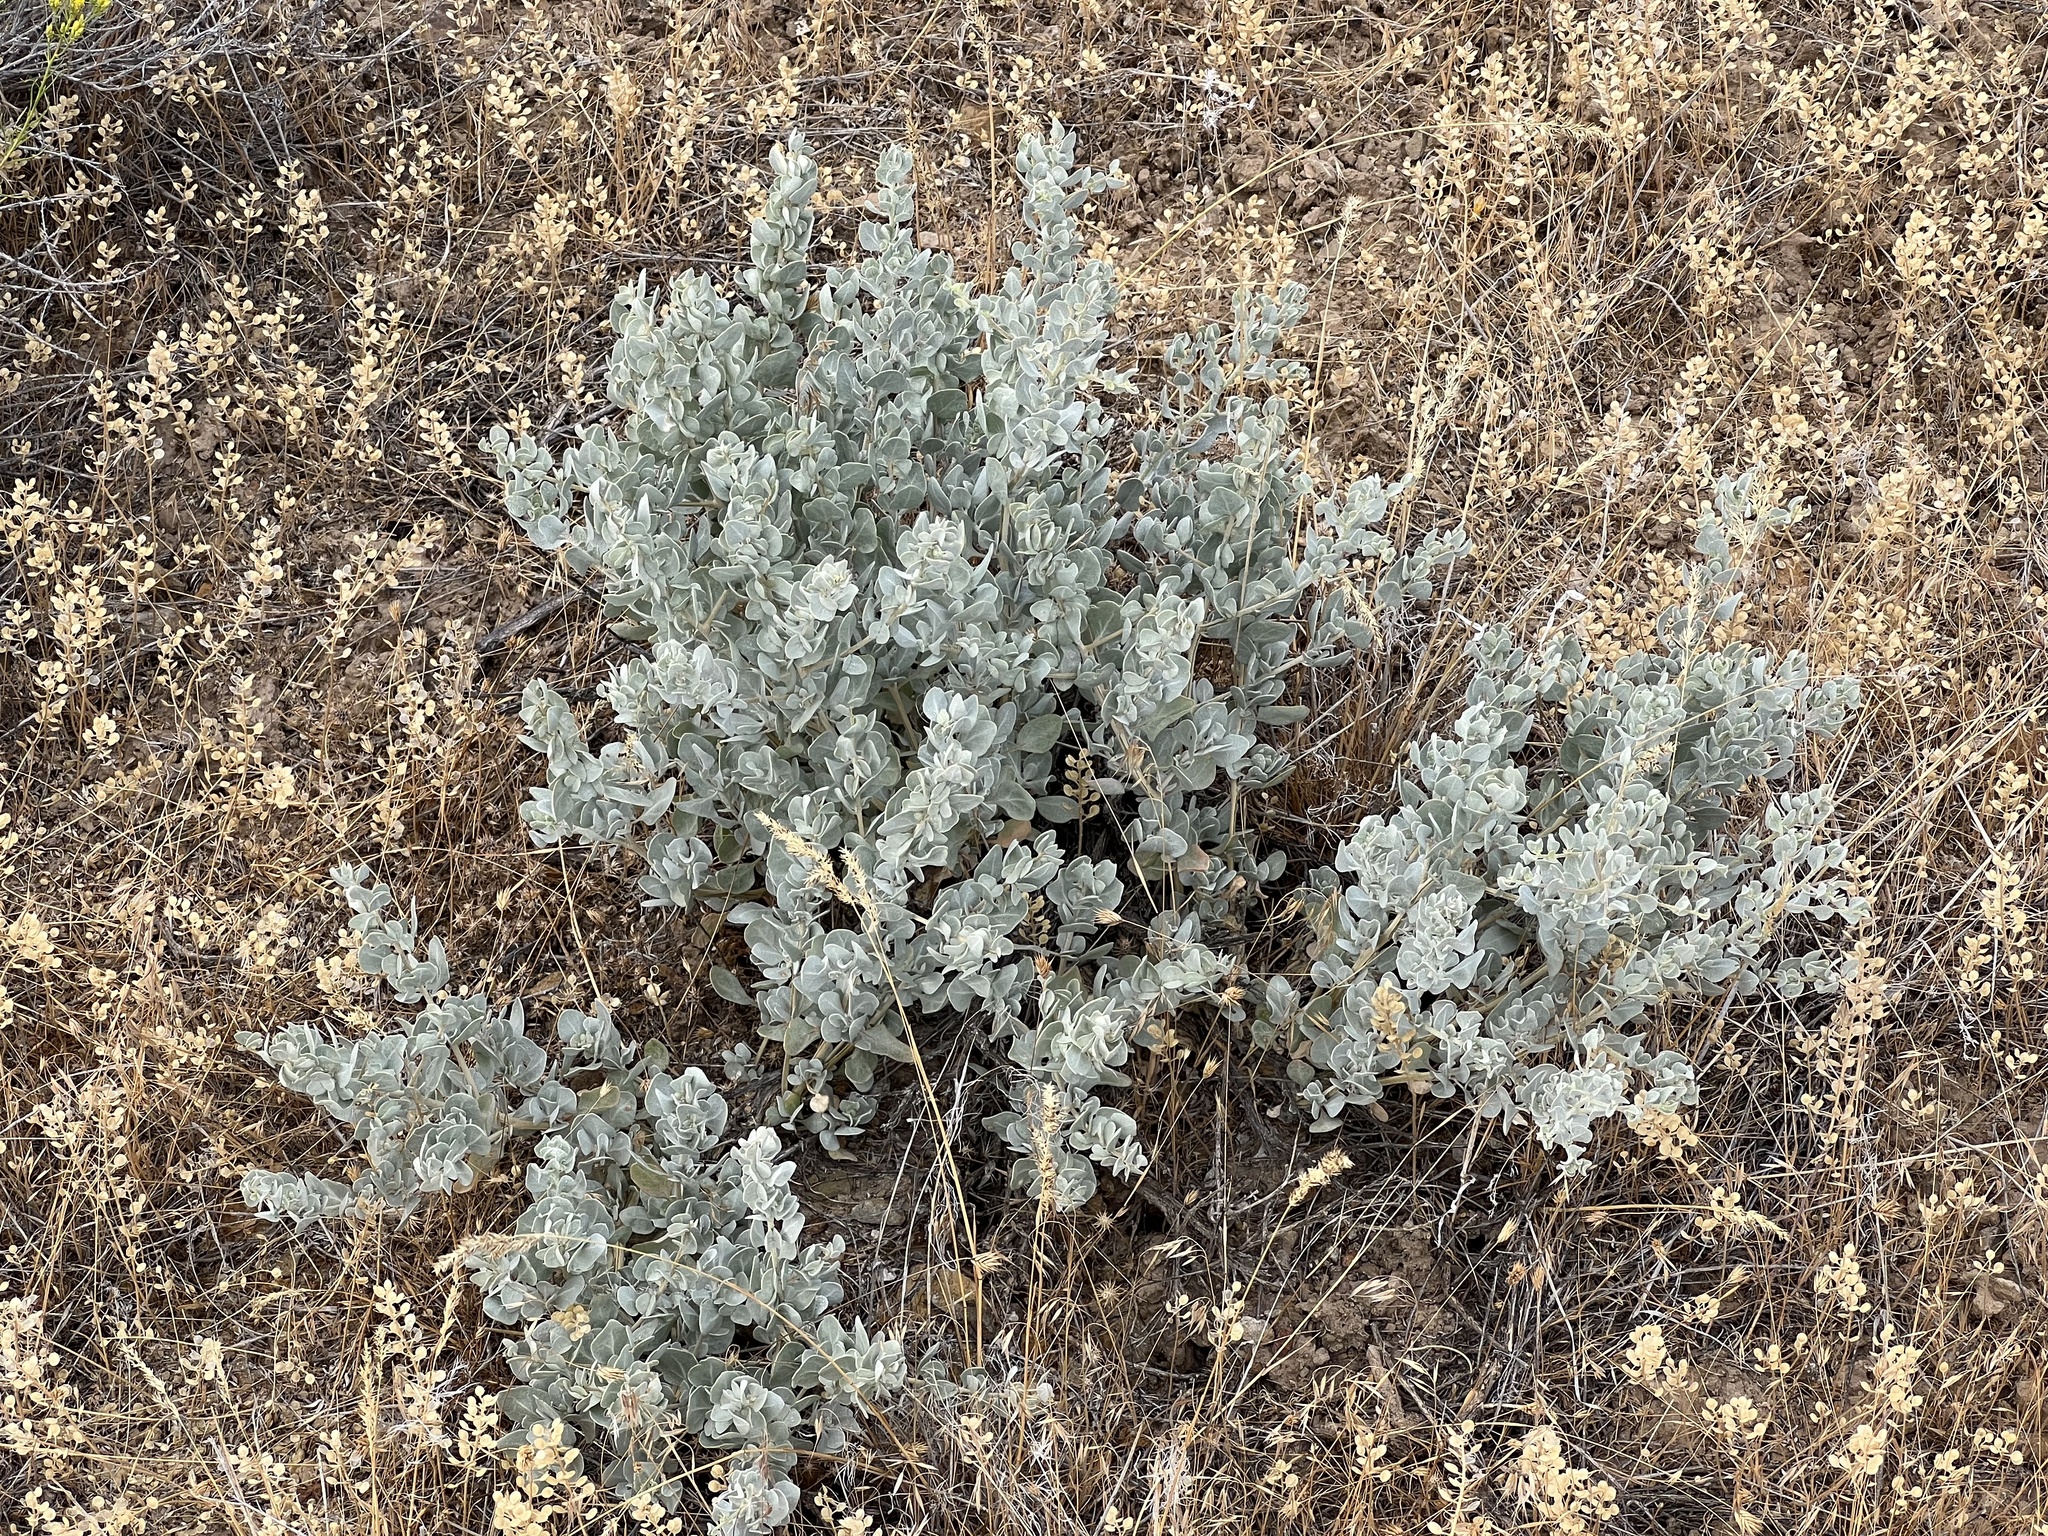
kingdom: Plantae
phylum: Tracheophyta
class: Magnoliopsida
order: Caryophyllales
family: Amaranthaceae
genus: Atriplex
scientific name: Atriplex confertifolia
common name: Shadscale
